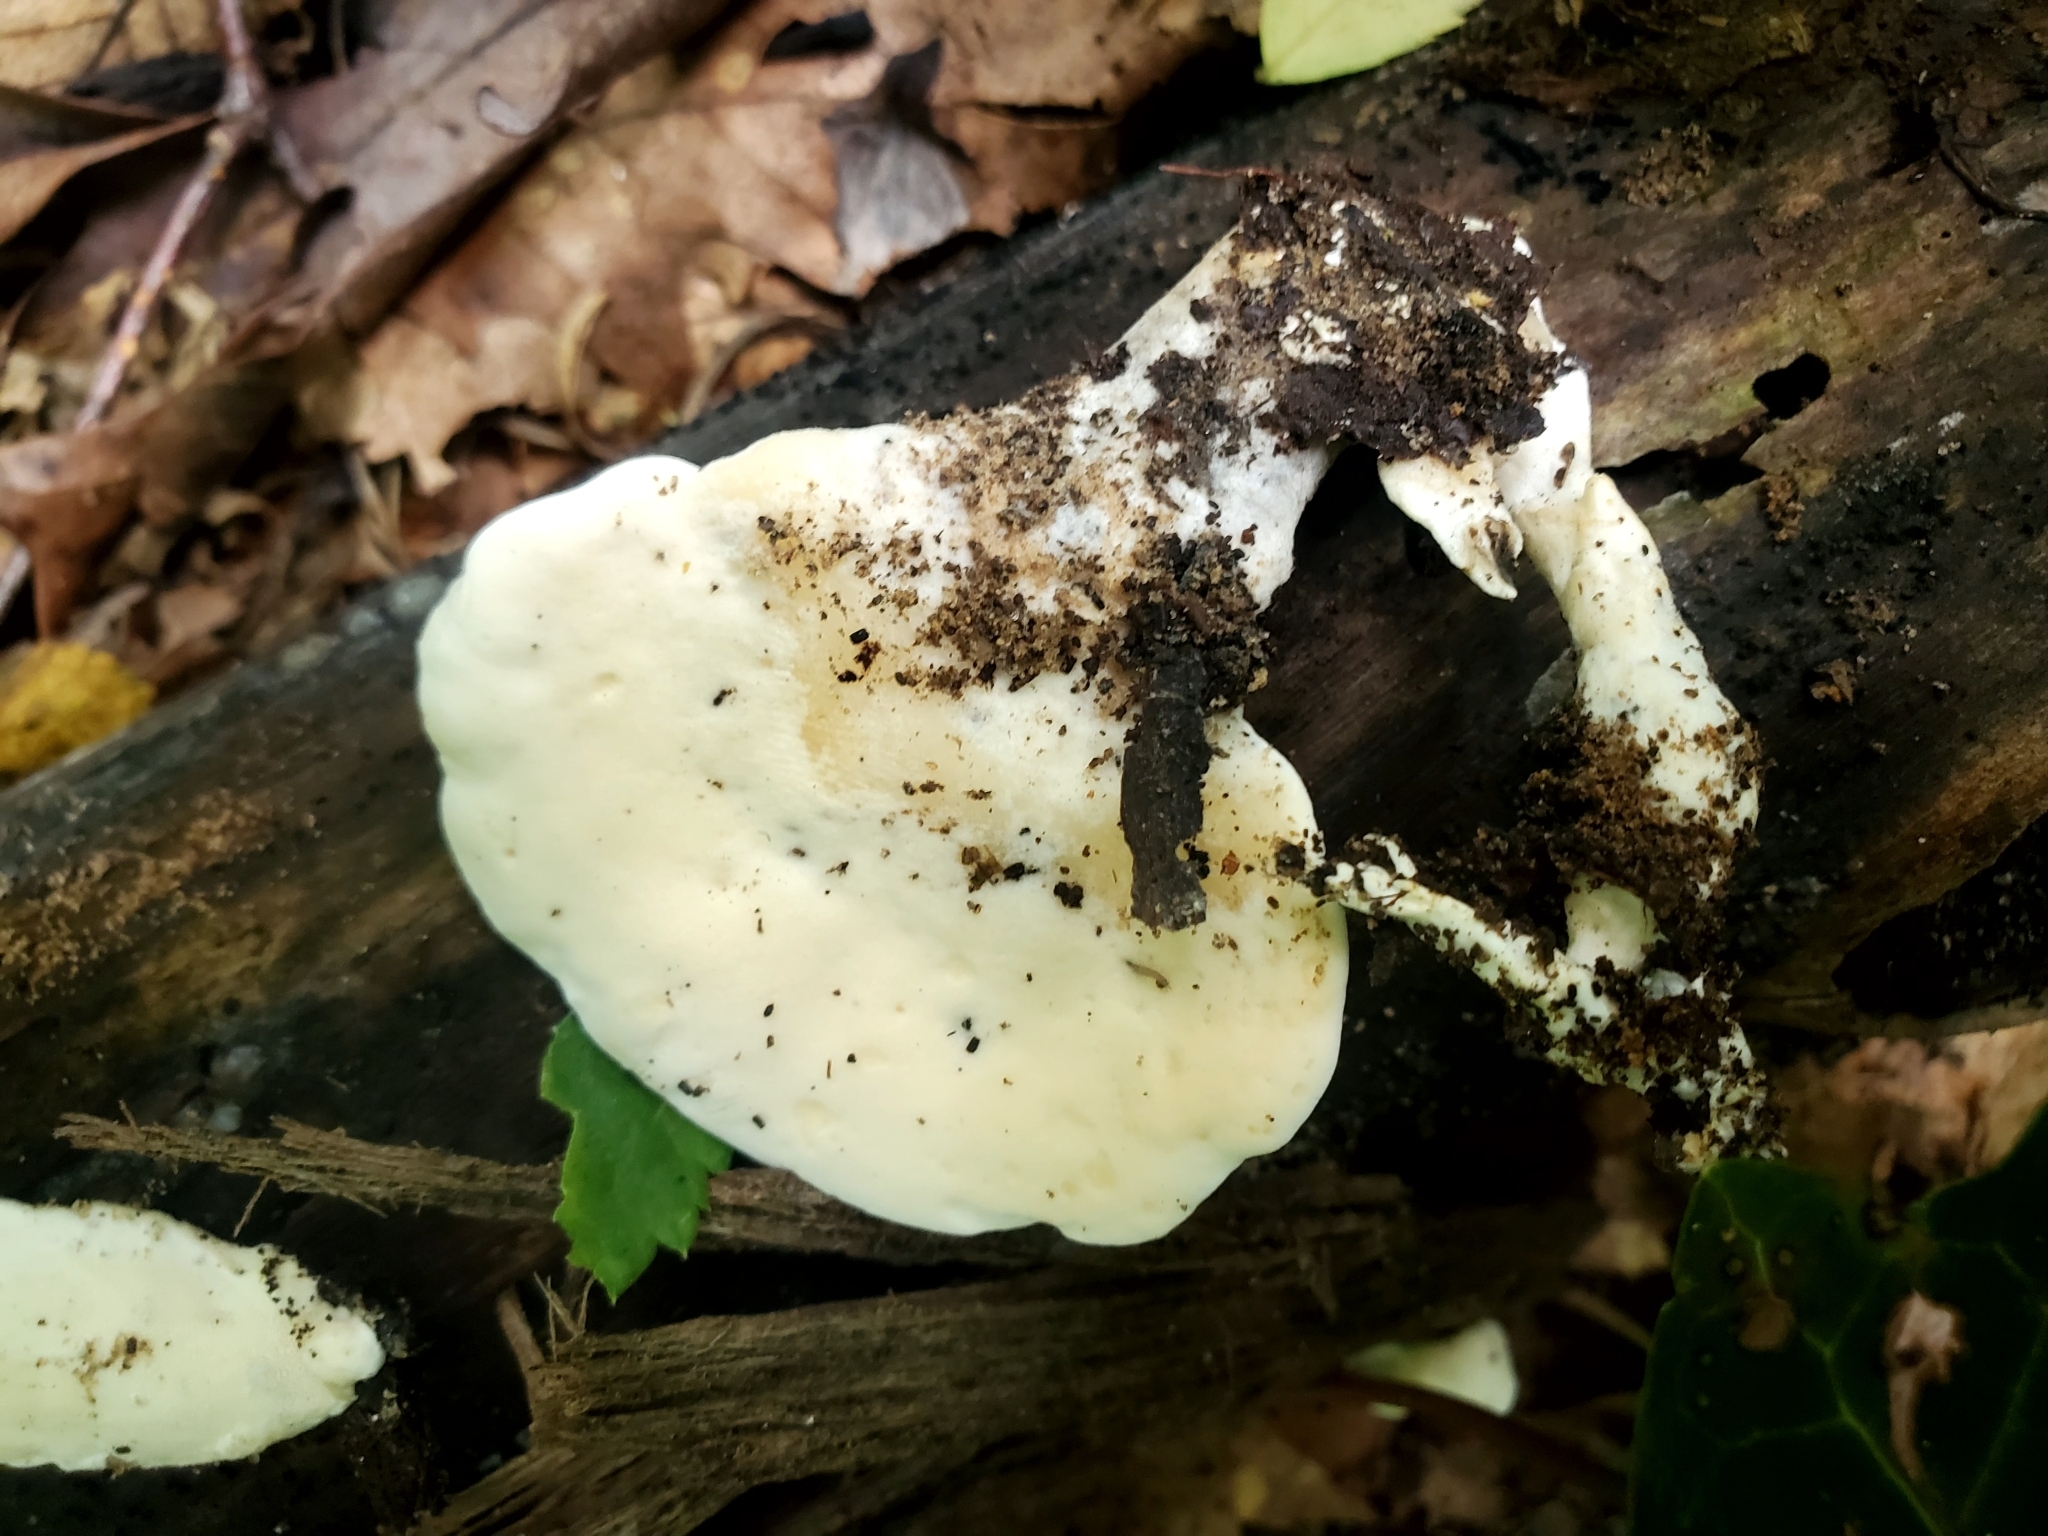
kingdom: Fungi
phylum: Basidiomycota
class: Agaricomycetes
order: Polyporales
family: Steccherinaceae
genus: Loweomyces
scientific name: Loweomyces fractipes
